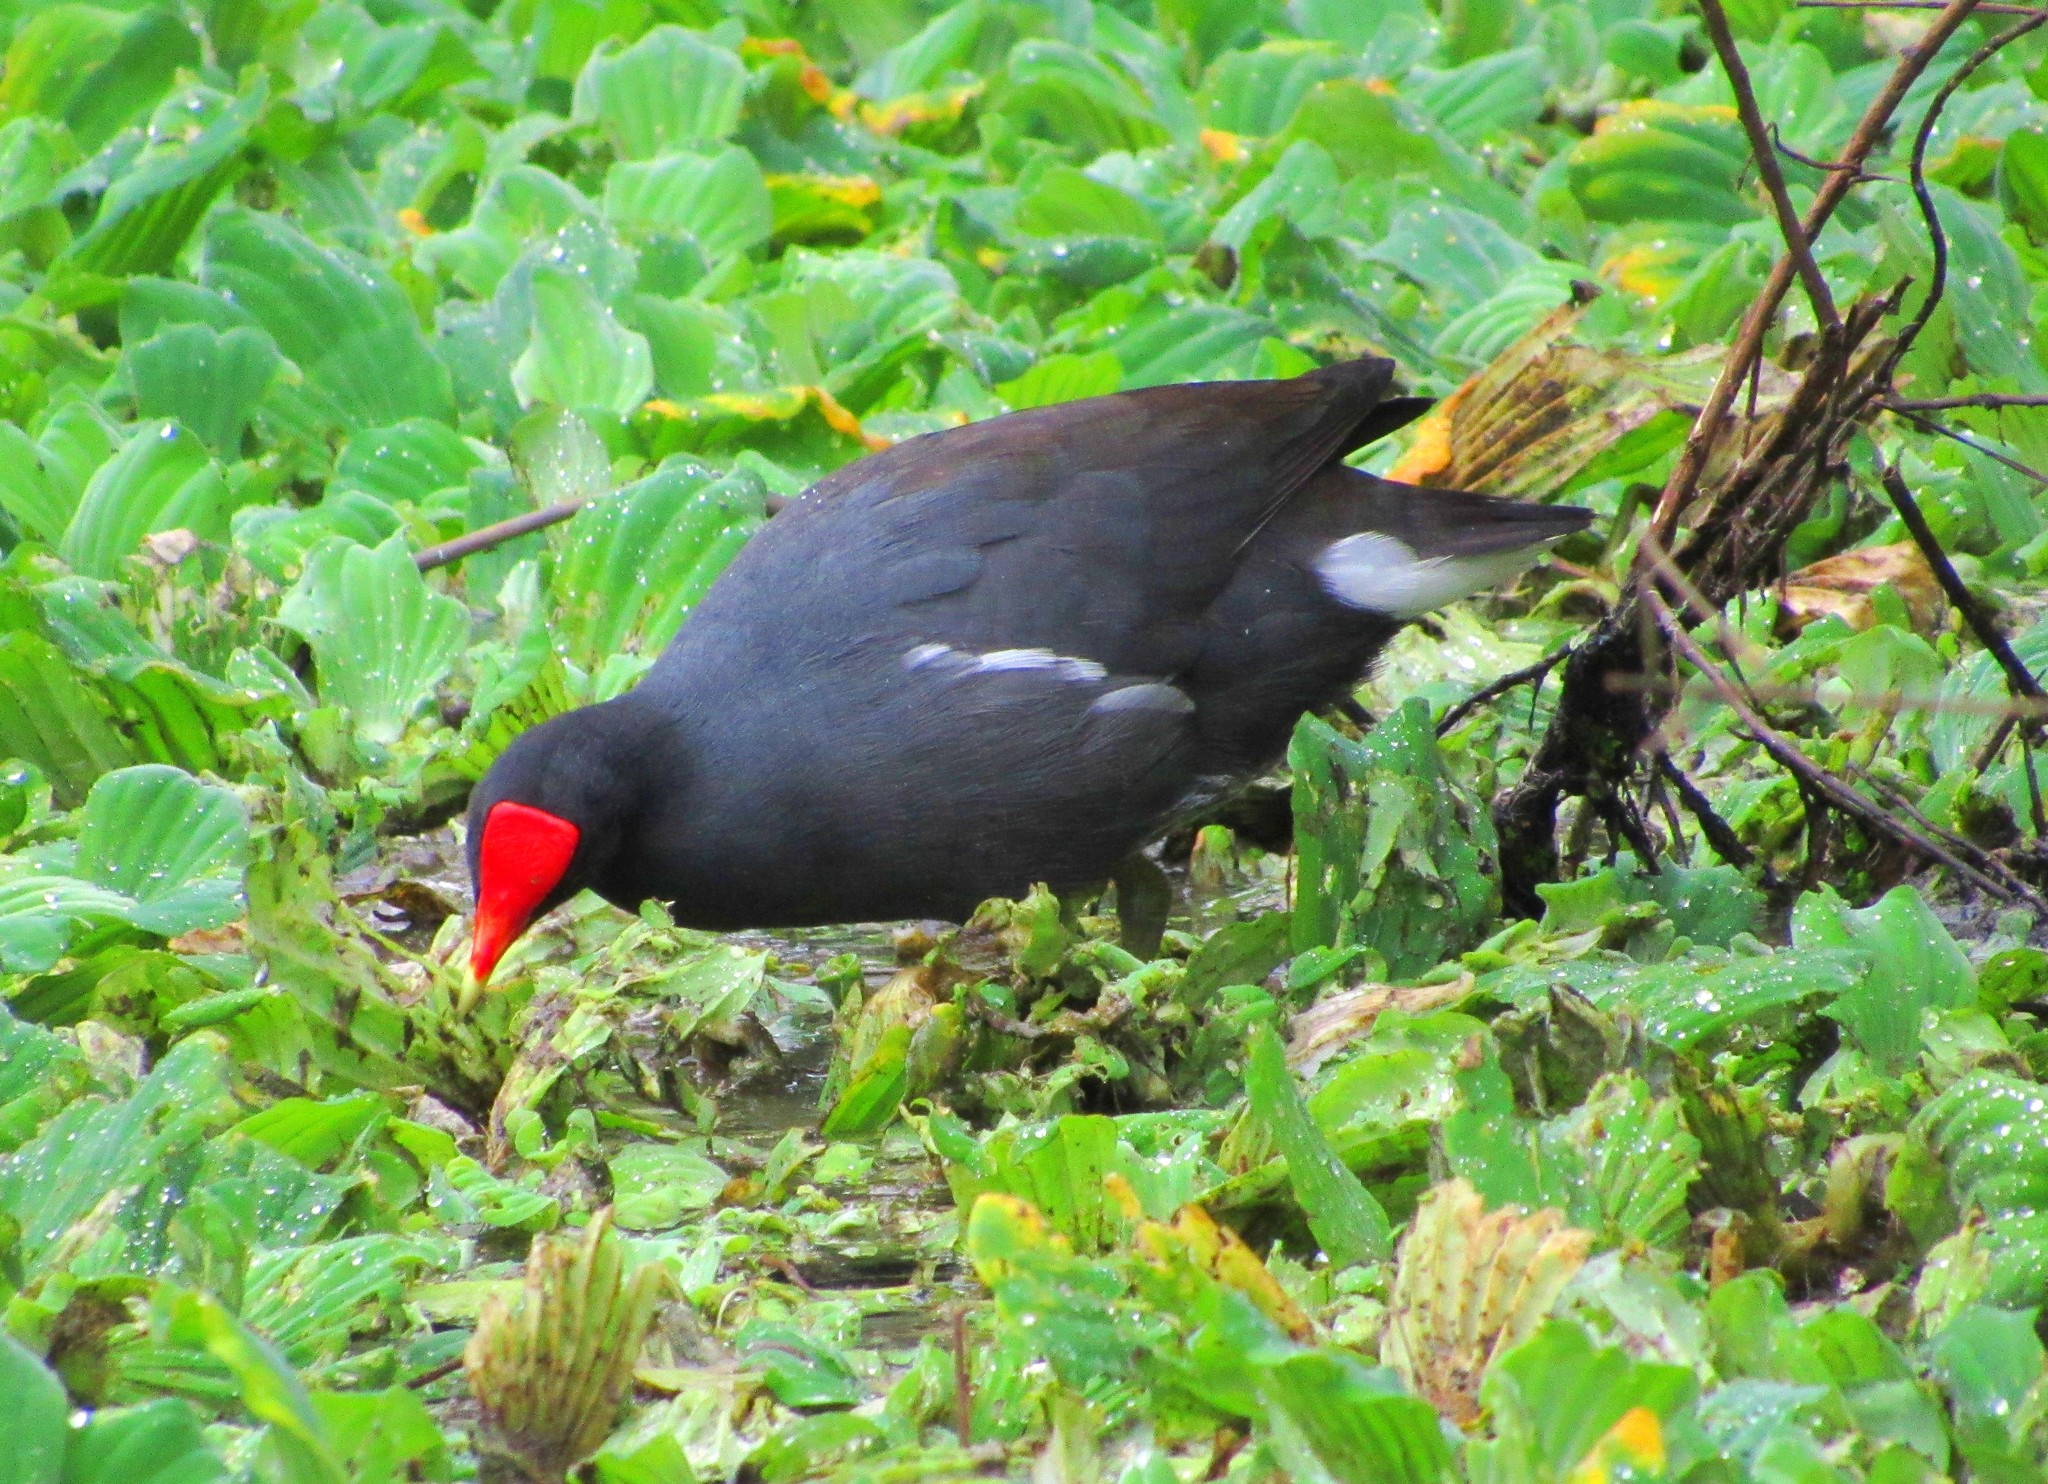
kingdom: Animalia
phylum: Chordata
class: Aves
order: Gruiformes
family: Rallidae
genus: Gallinula
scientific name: Gallinula chloropus
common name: Common moorhen
